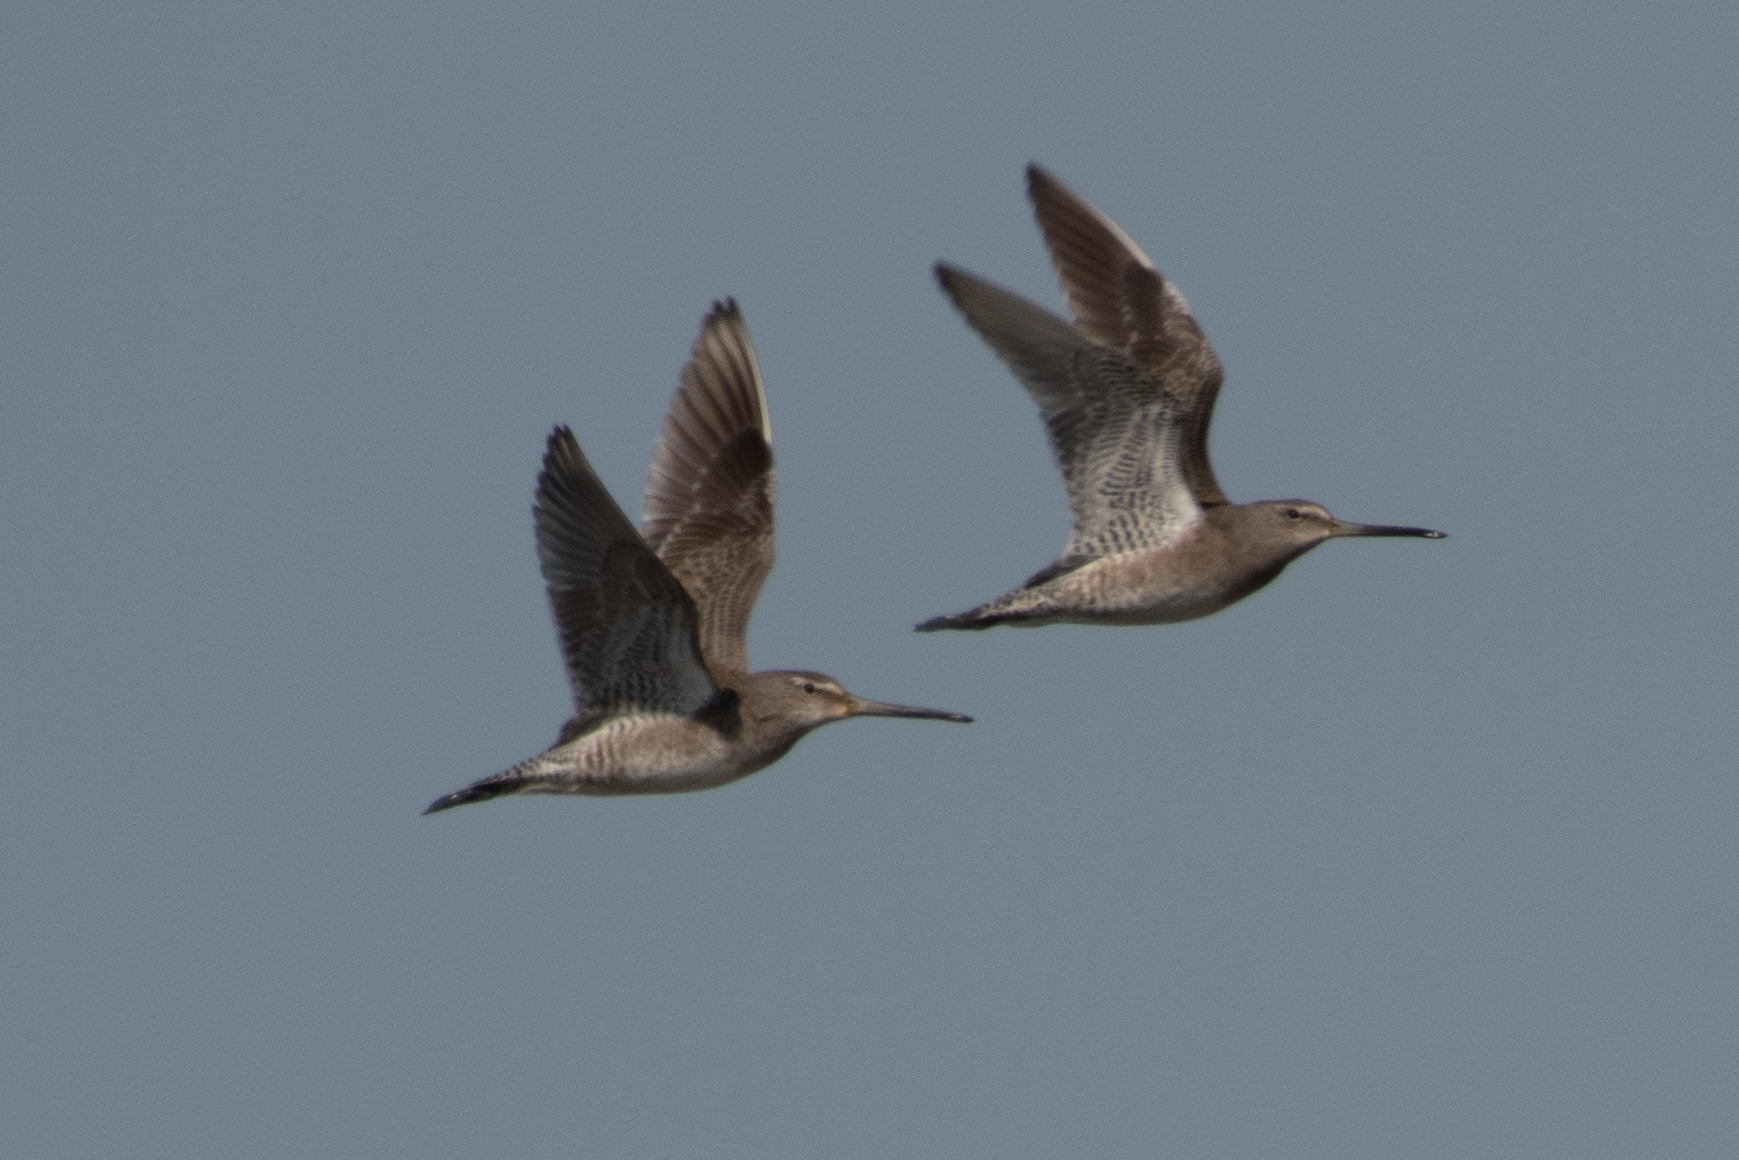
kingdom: Animalia
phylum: Chordata
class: Aves
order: Charadriiformes
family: Scolopacidae
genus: Limnodromus
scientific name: Limnodromus scolopaceus
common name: Long-billed dowitcher
